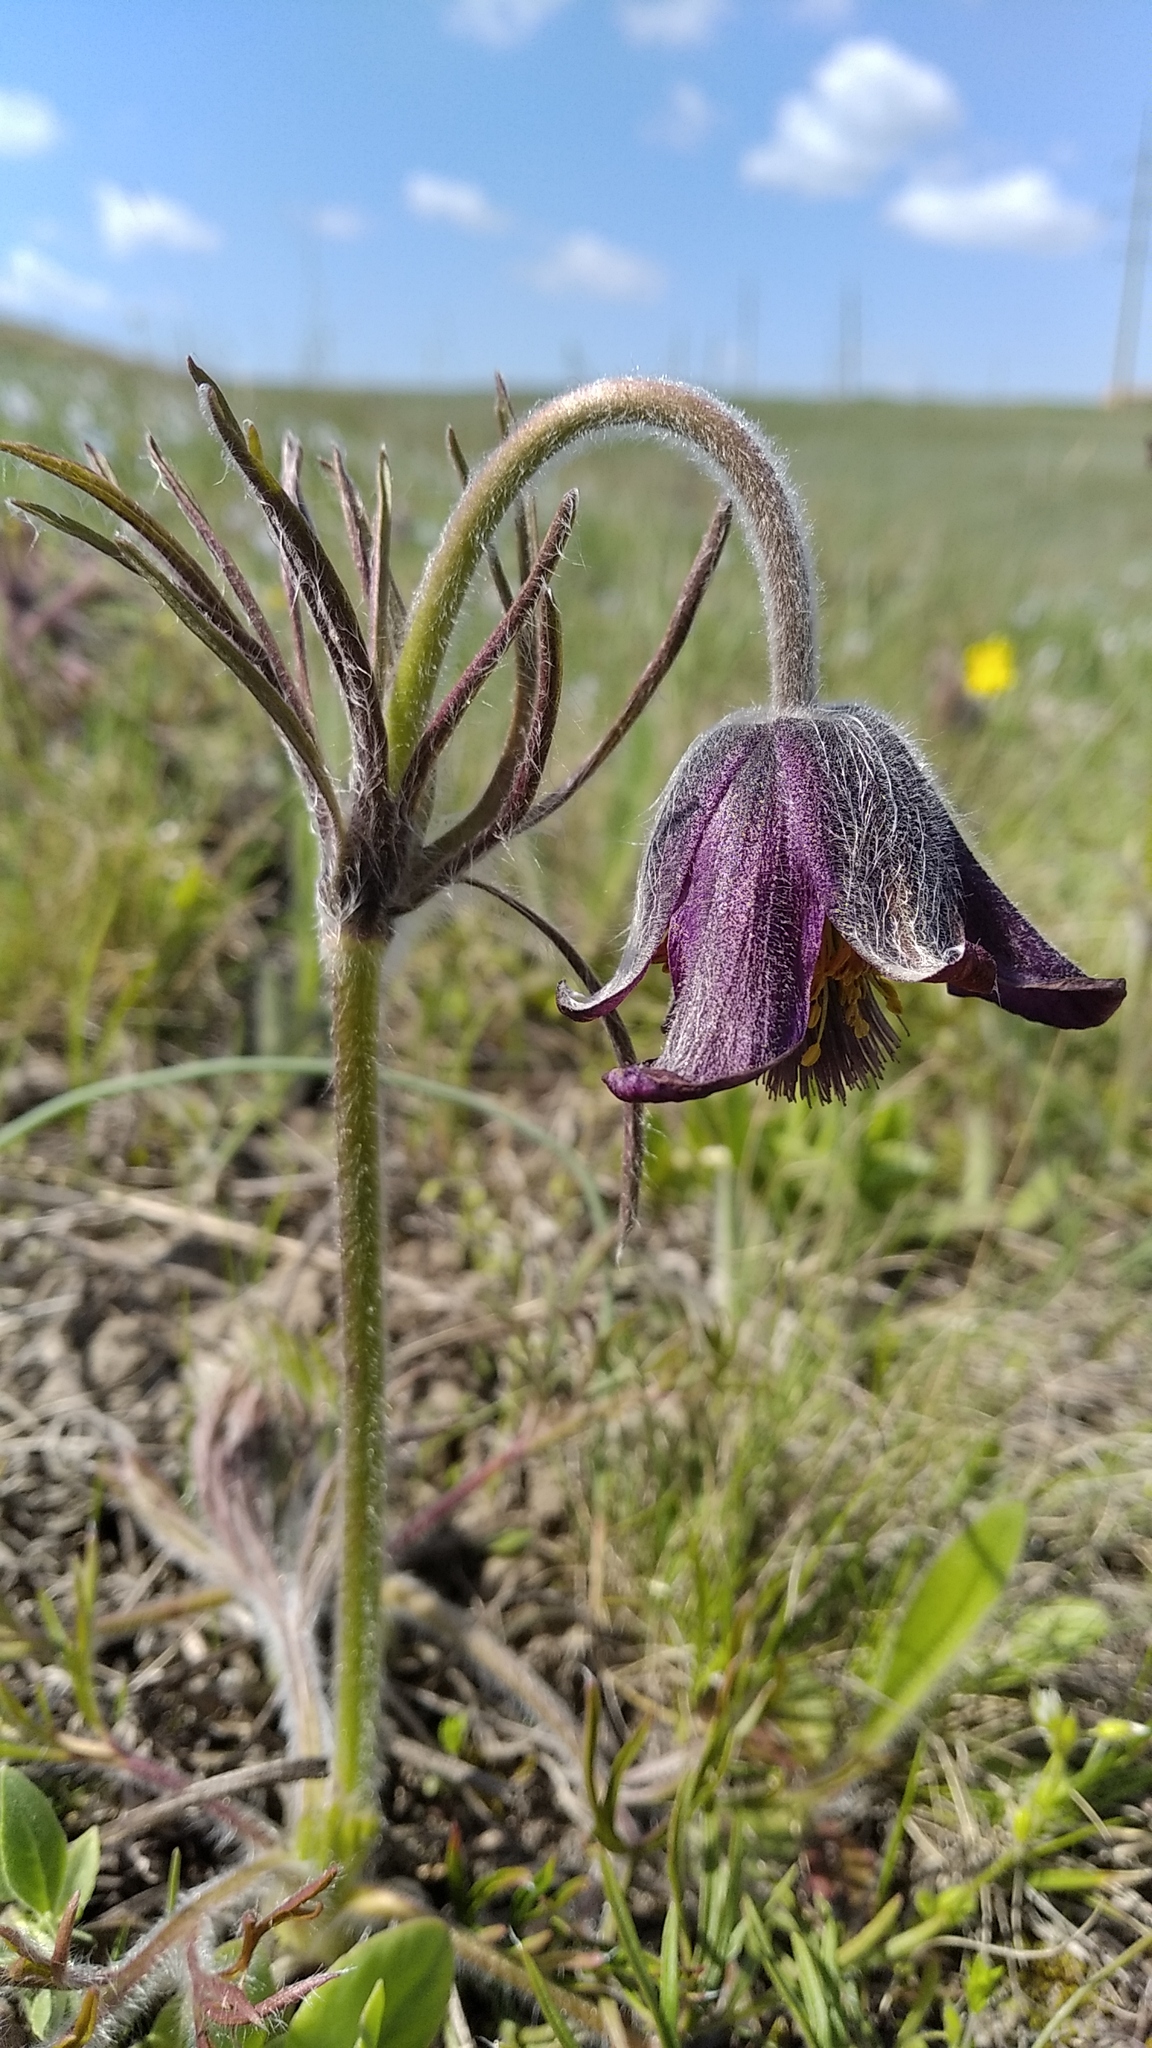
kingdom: Plantae
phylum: Tracheophyta
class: Magnoliopsida
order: Ranunculales
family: Ranunculaceae
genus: Pulsatilla
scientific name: Pulsatilla pratensis
